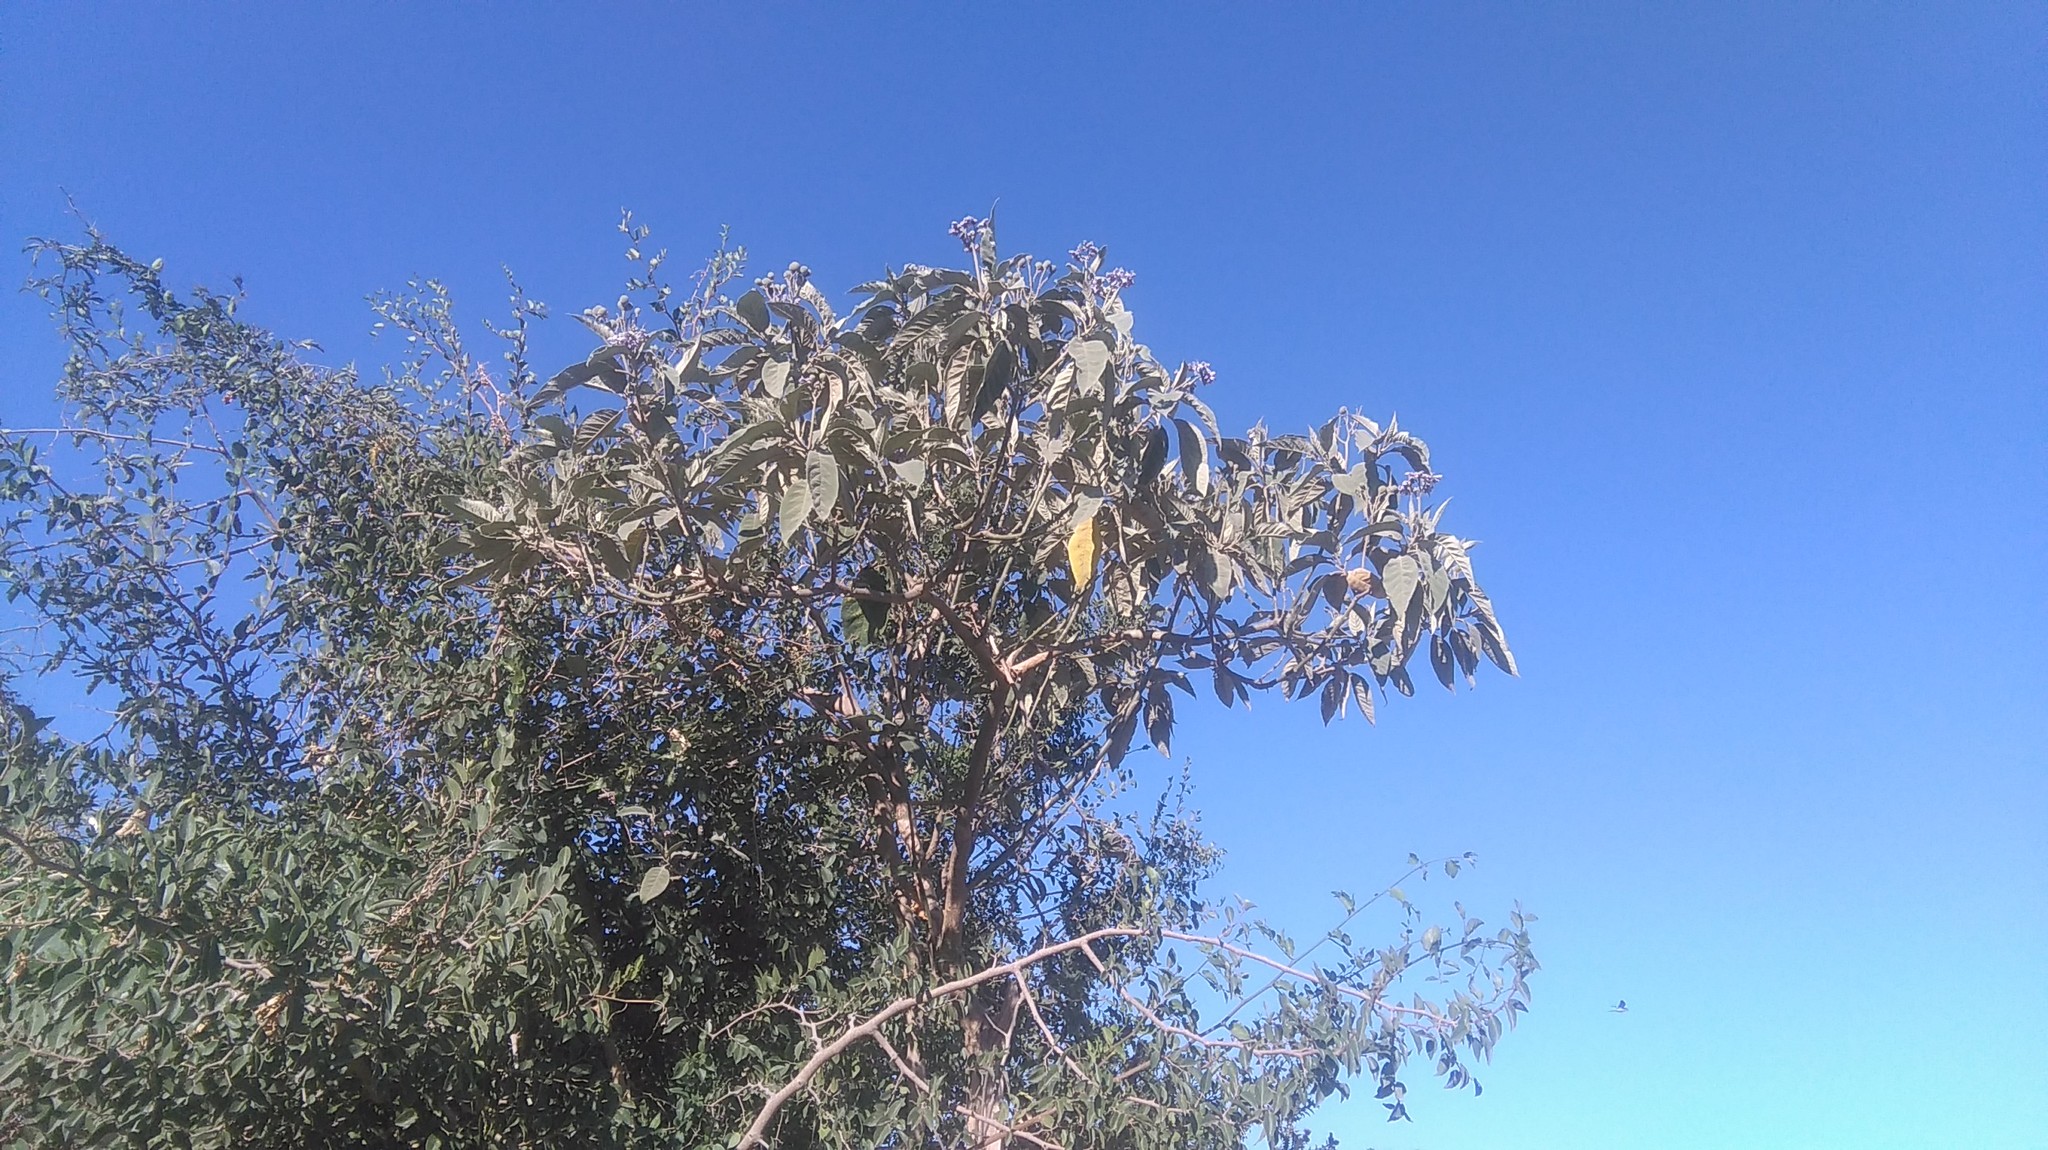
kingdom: Plantae
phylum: Tracheophyta
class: Magnoliopsida
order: Solanales
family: Solanaceae
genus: Solanum
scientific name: Solanum granulosoleprosum
